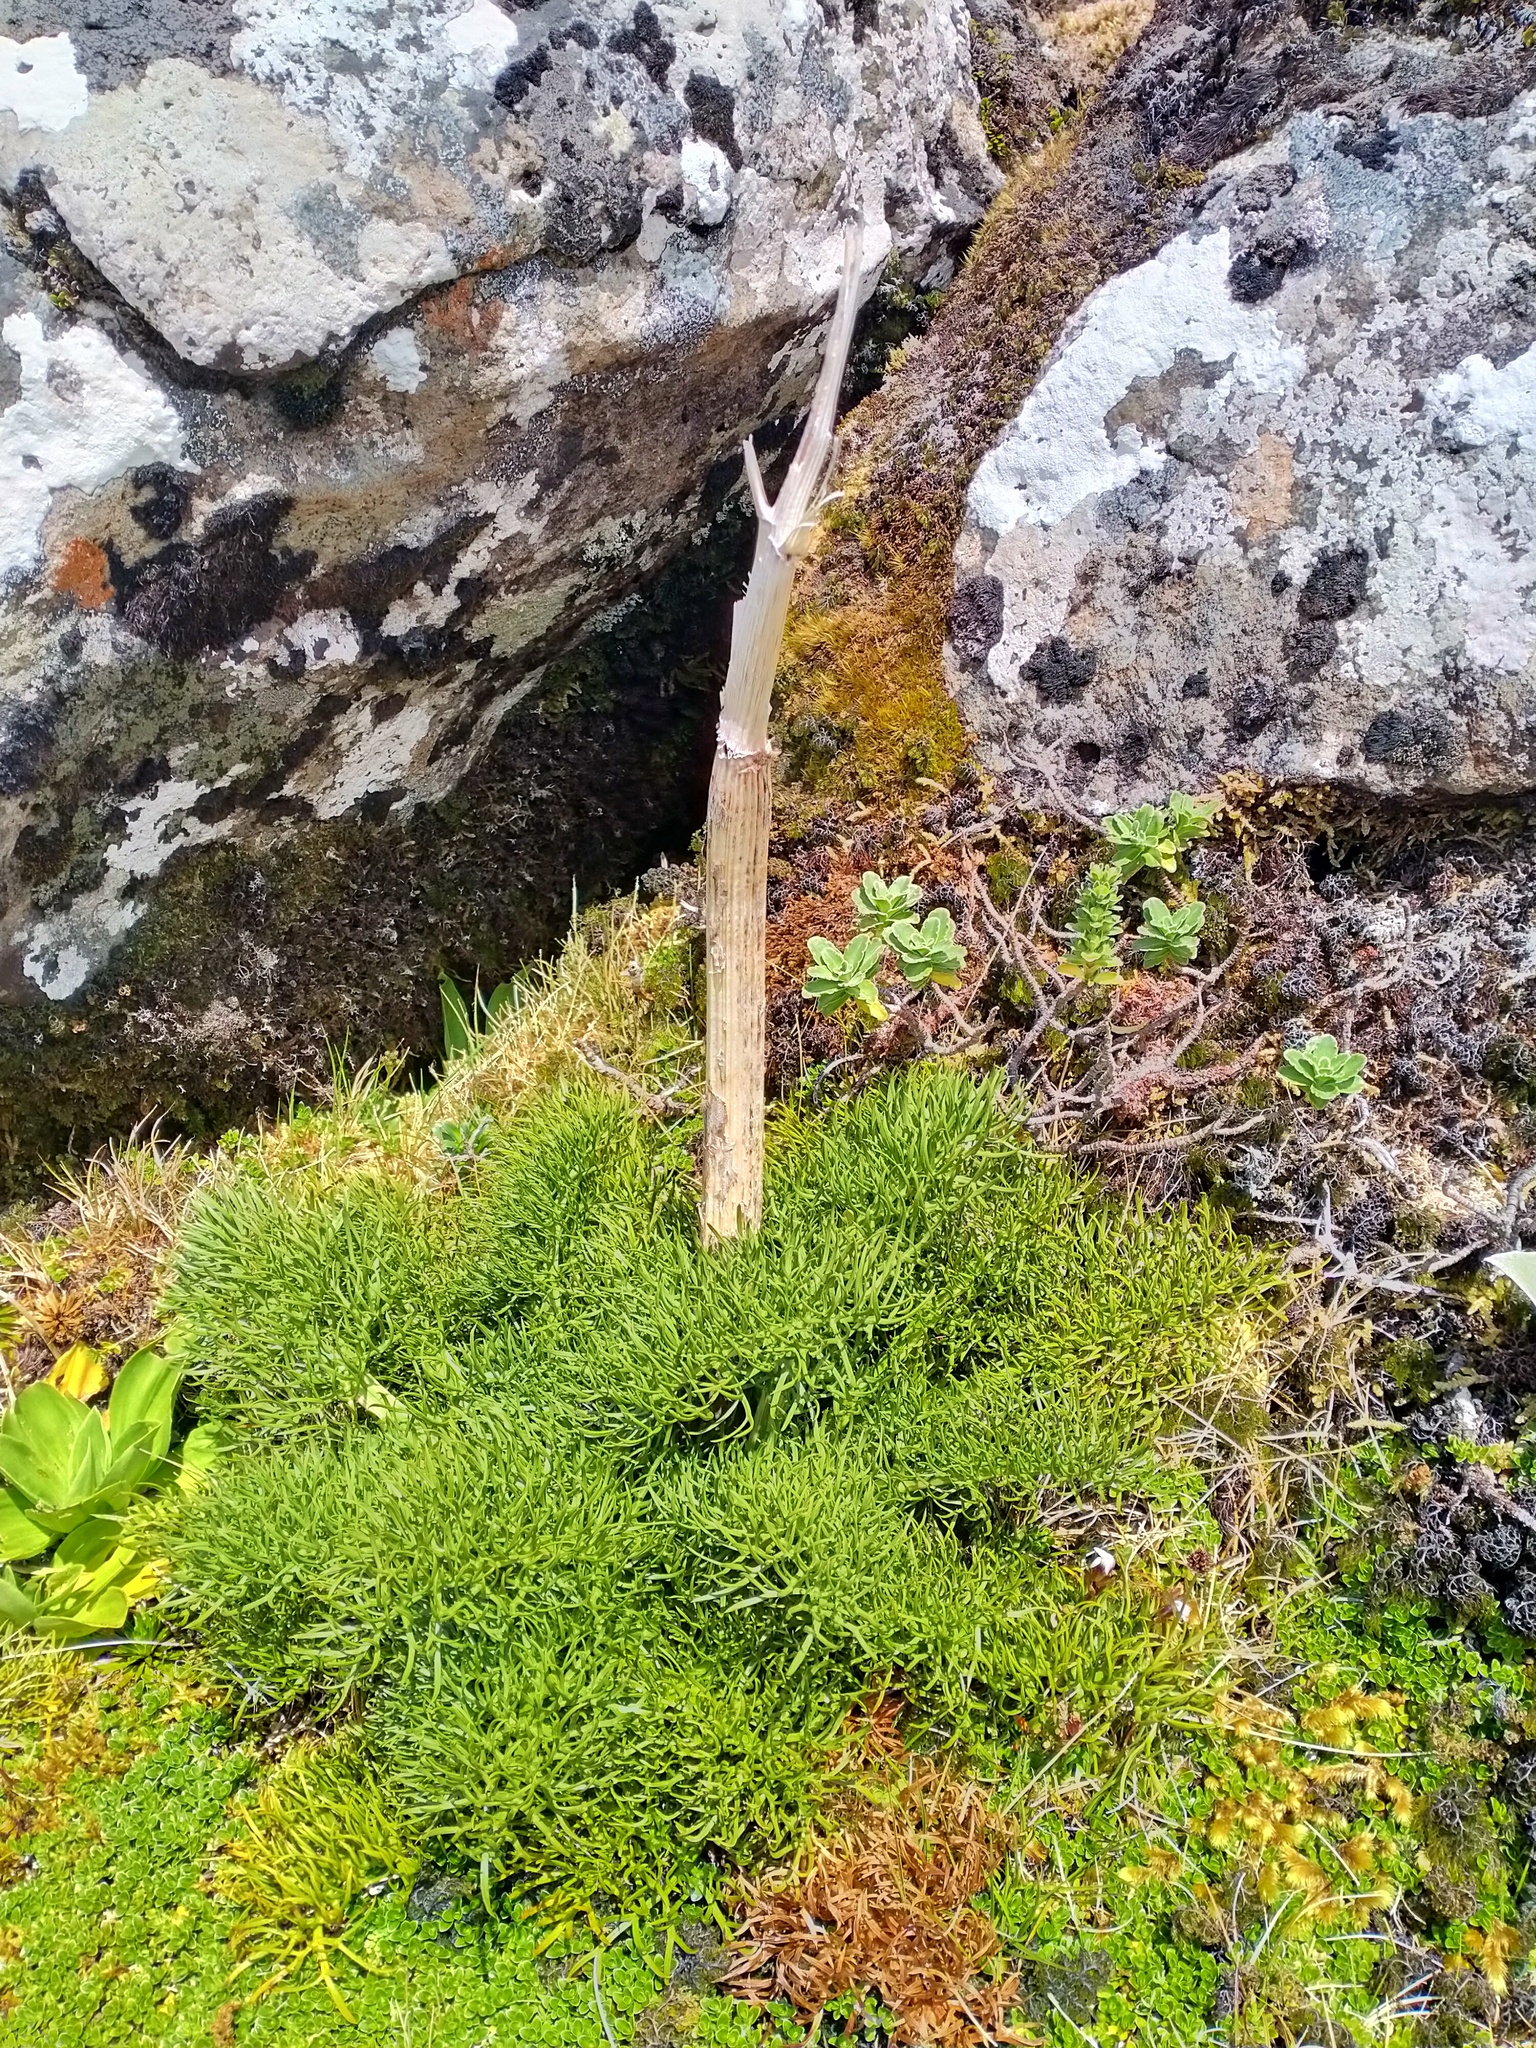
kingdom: Plantae
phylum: Tracheophyta
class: Magnoliopsida
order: Apiales
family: Apiaceae
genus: Anisotome
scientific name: Anisotome antipoda
